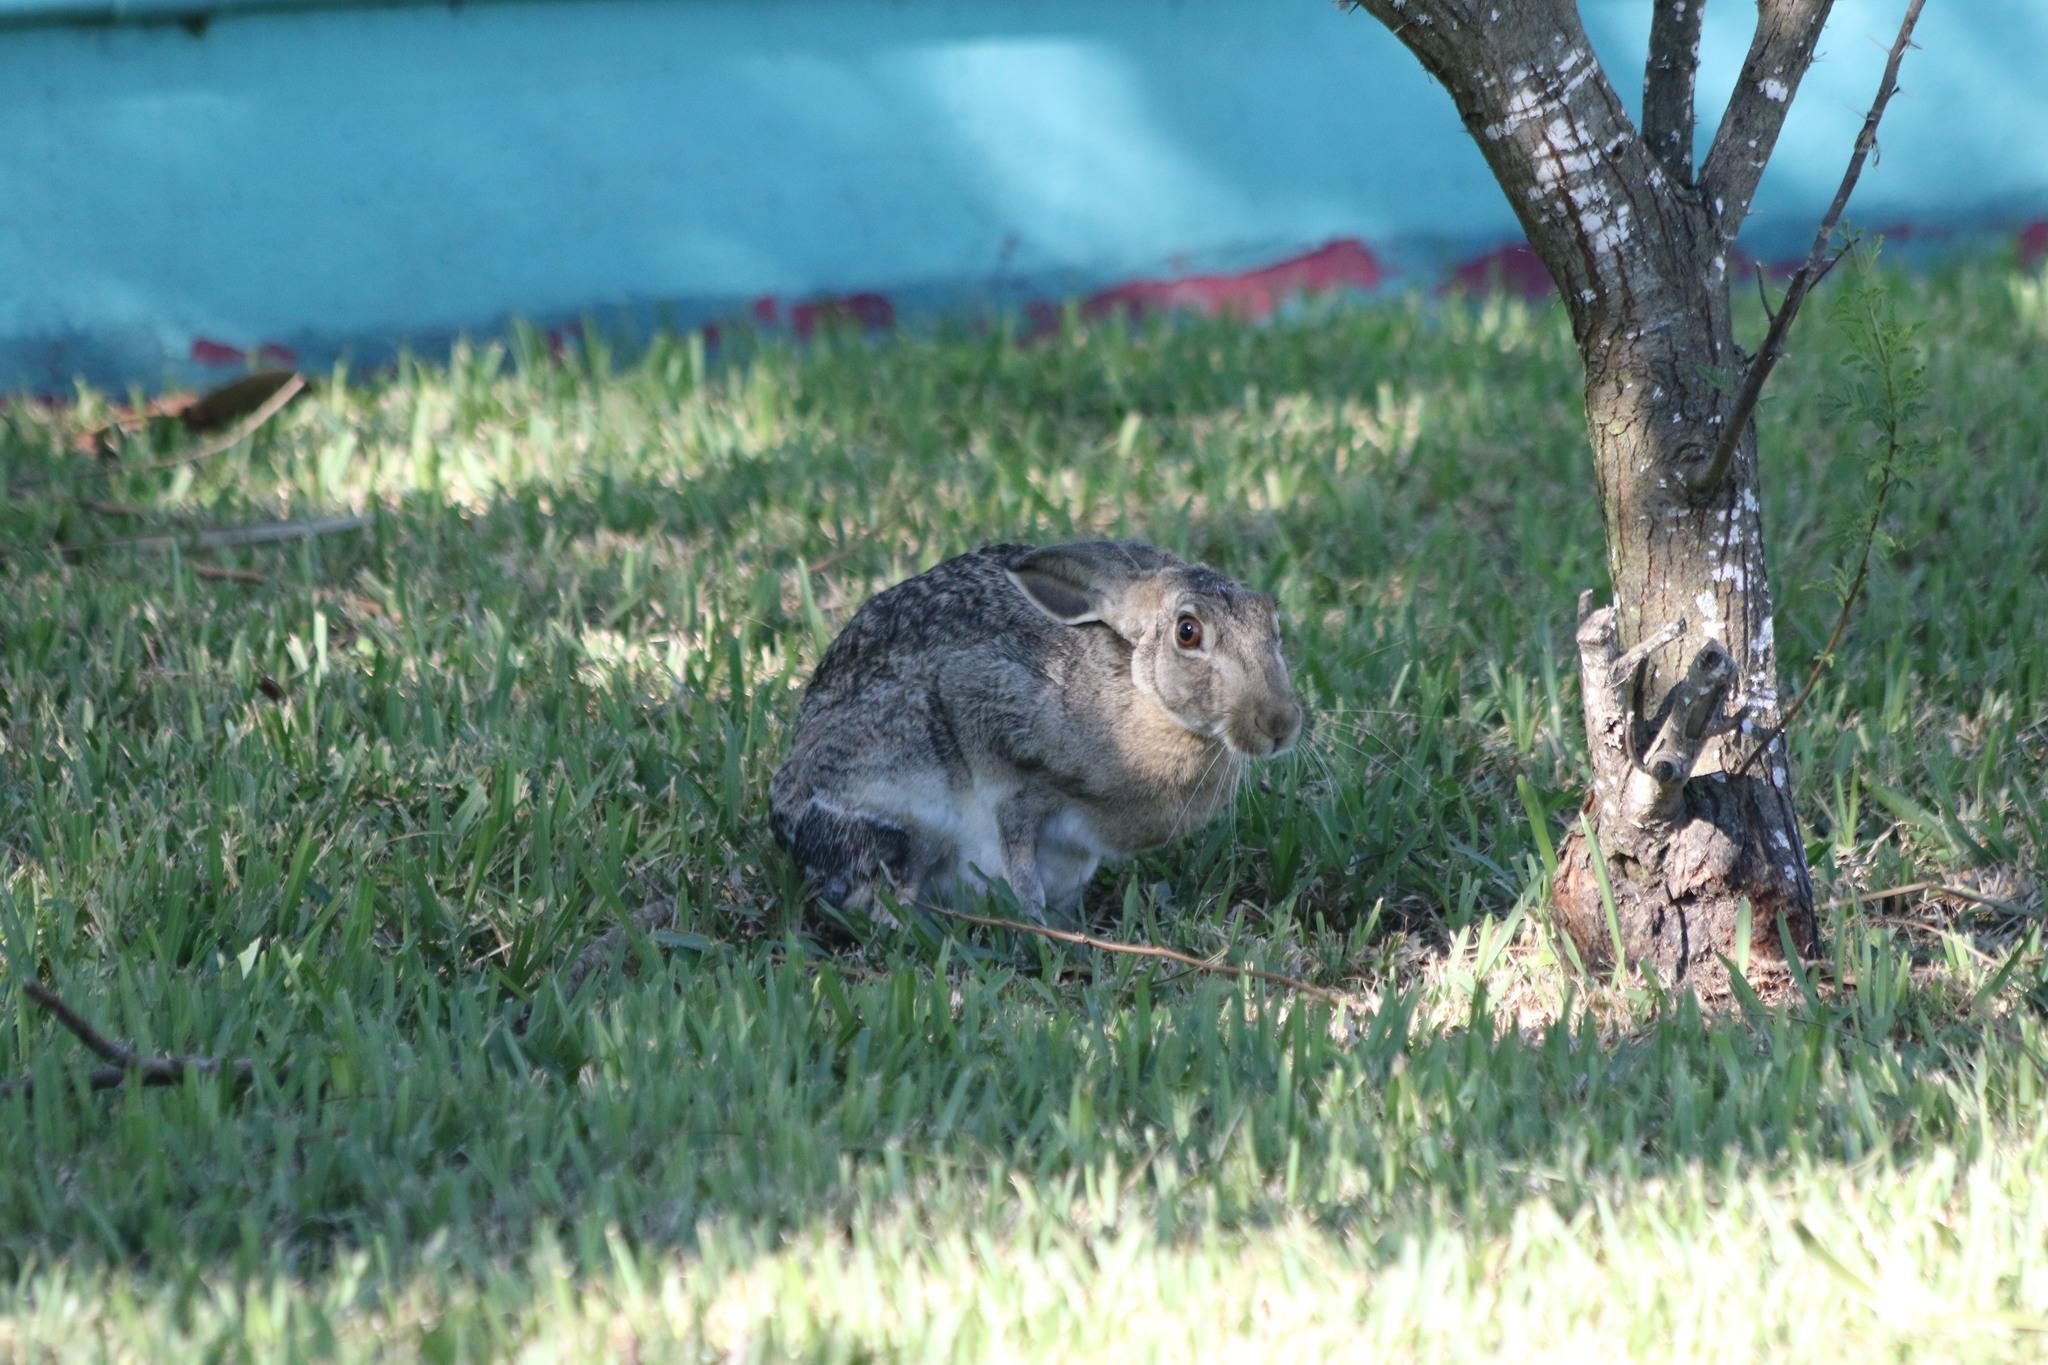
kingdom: Animalia
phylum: Chordata
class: Mammalia
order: Lagomorpha
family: Leporidae
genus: Lepus
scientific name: Lepus californicus
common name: Black-tailed jackrabbit
